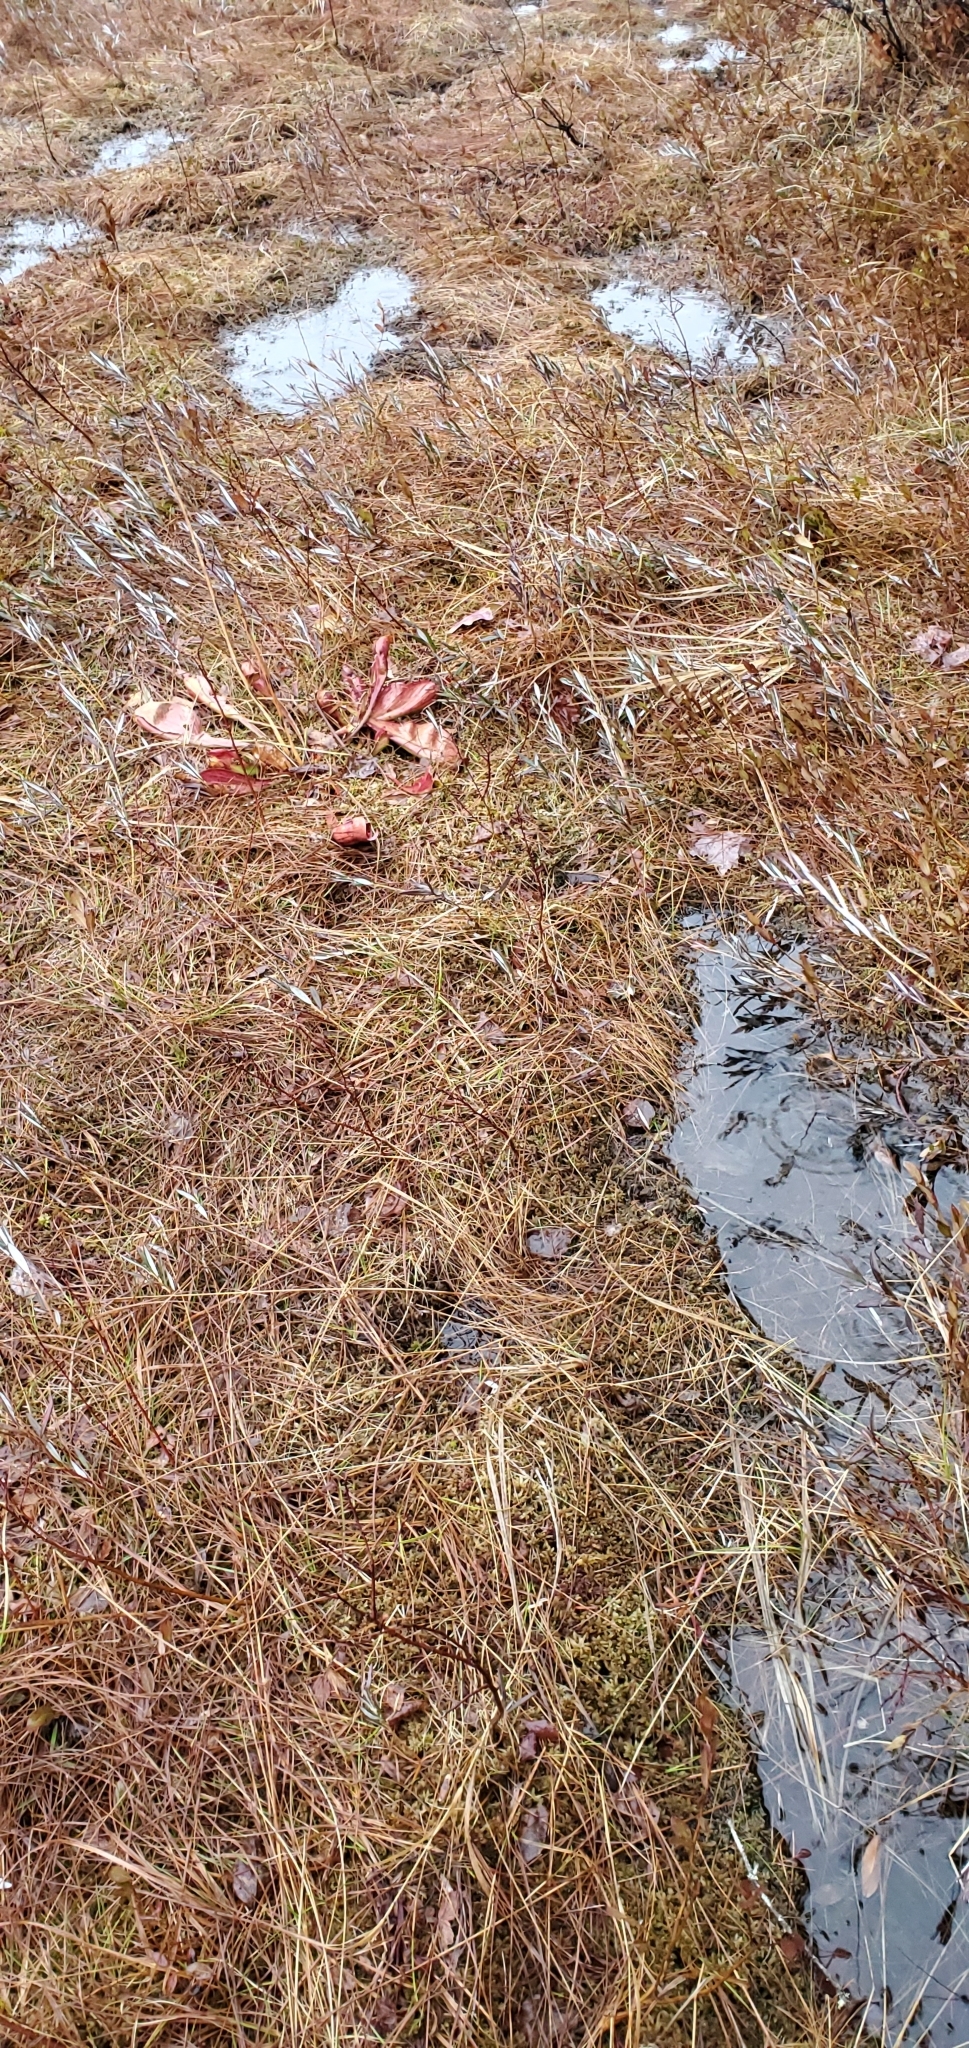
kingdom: Plantae
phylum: Tracheophyta
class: Magnoliopsida
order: Ericales
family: Sarraceniaceae
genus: Sarracenia
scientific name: Sarracenia purpurea
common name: Pitcherplant
